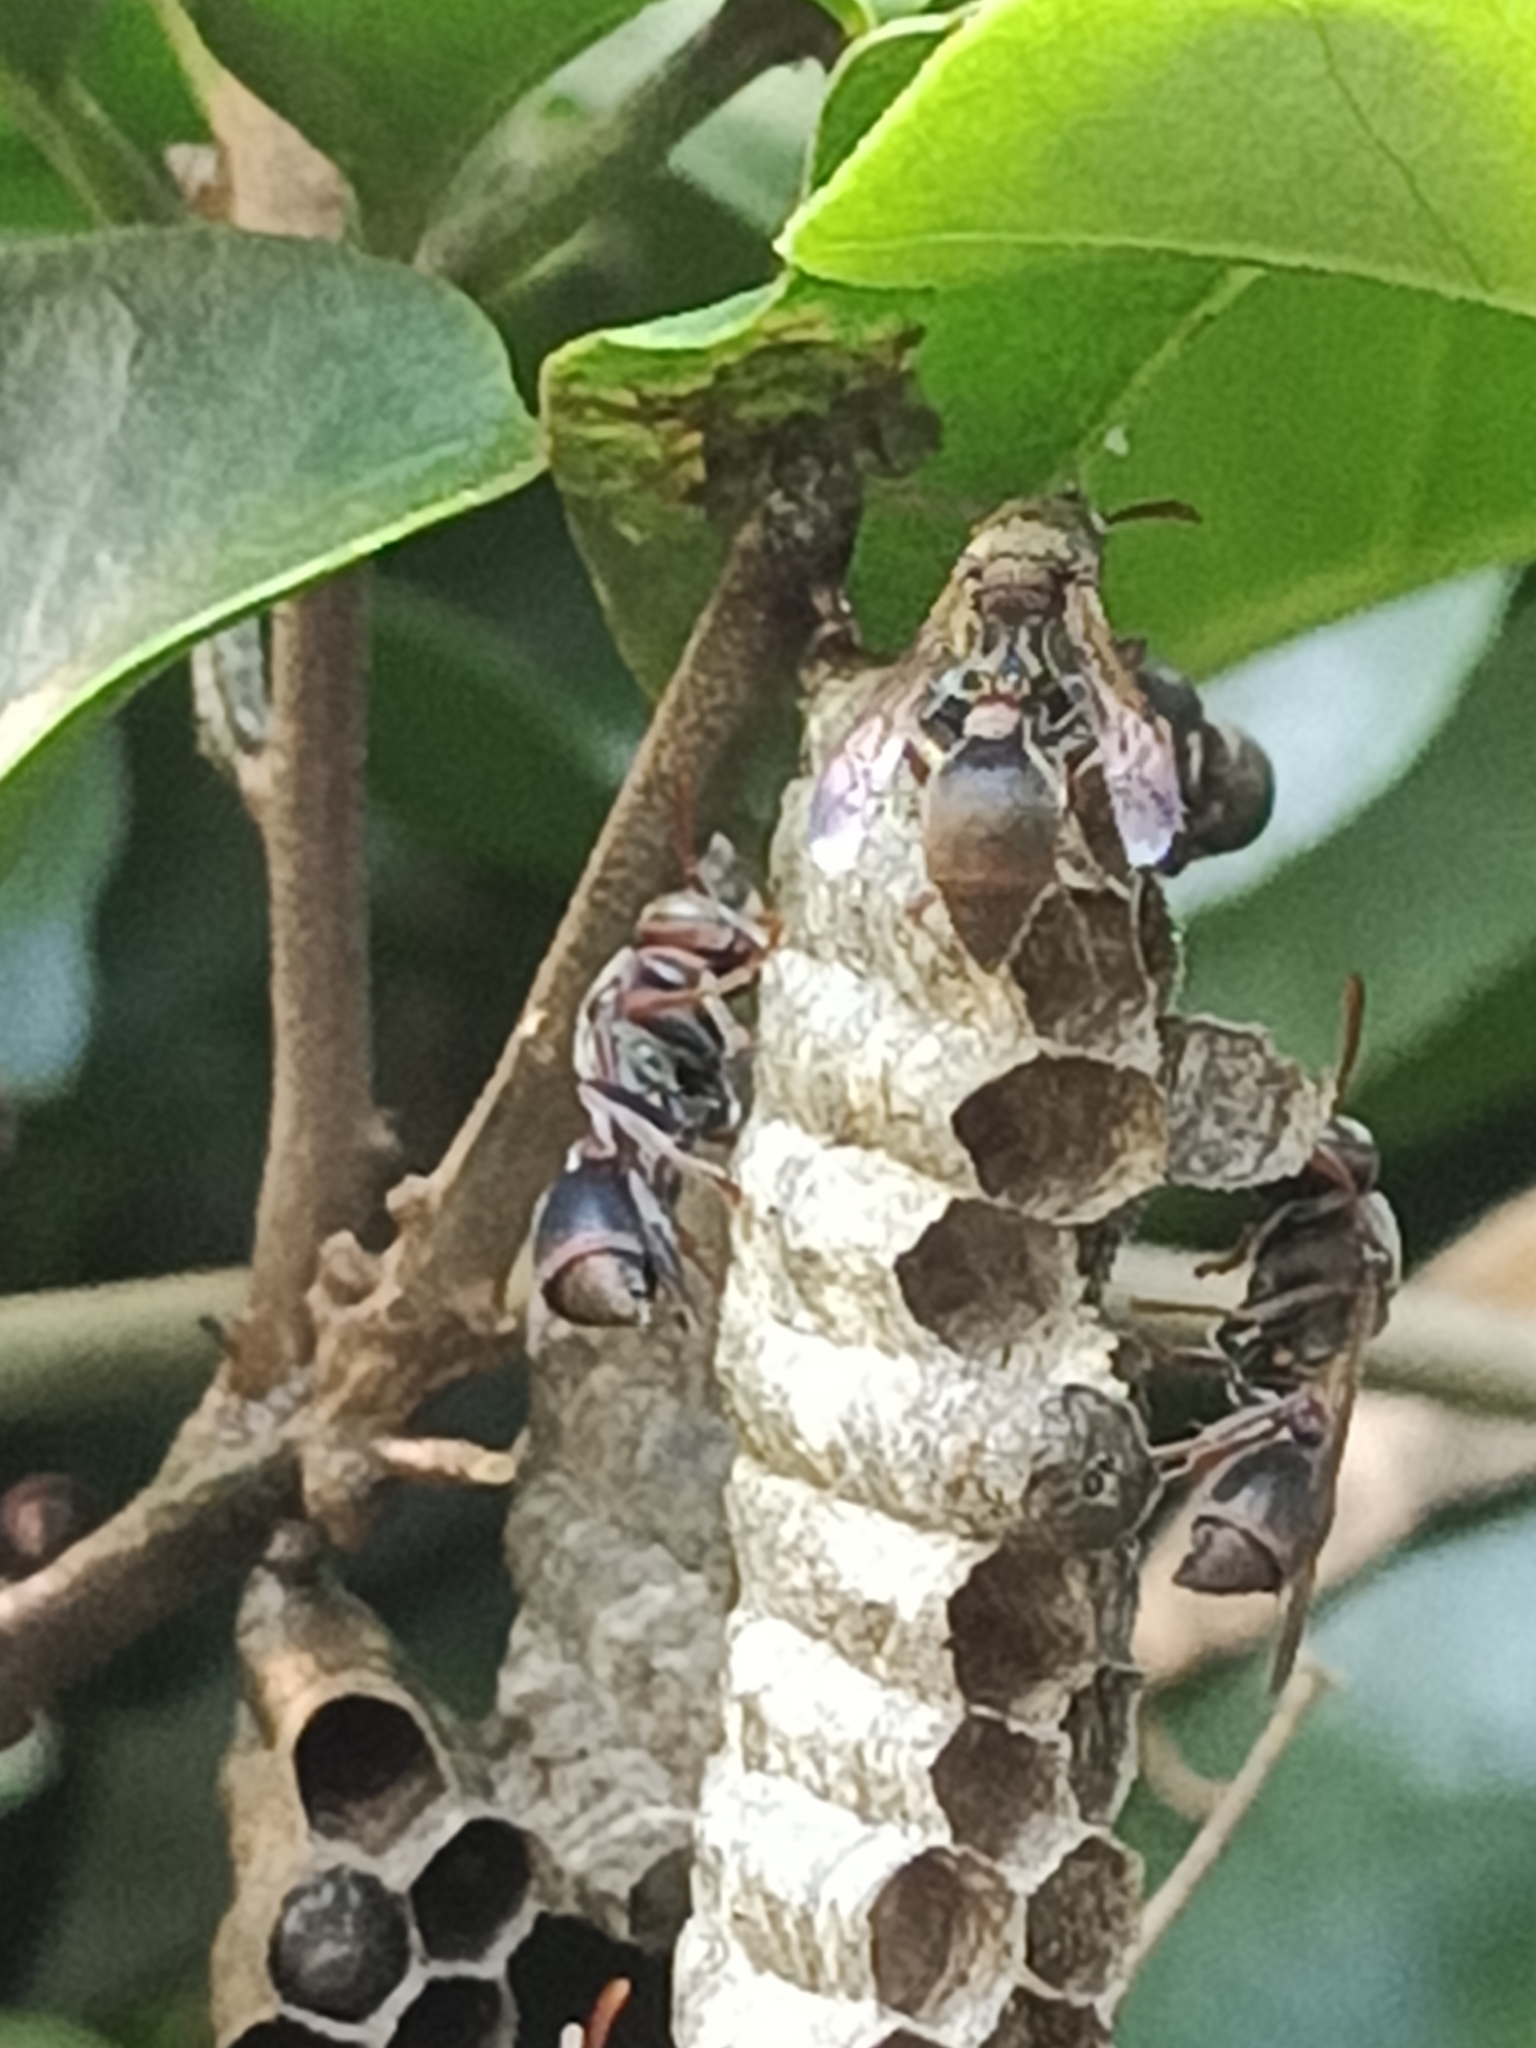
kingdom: Animalia
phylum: Arthropoda
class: Insecta
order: Hymenoptera
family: Vespidae
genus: Ropalidia
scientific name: Ropalidia revolutionalis
